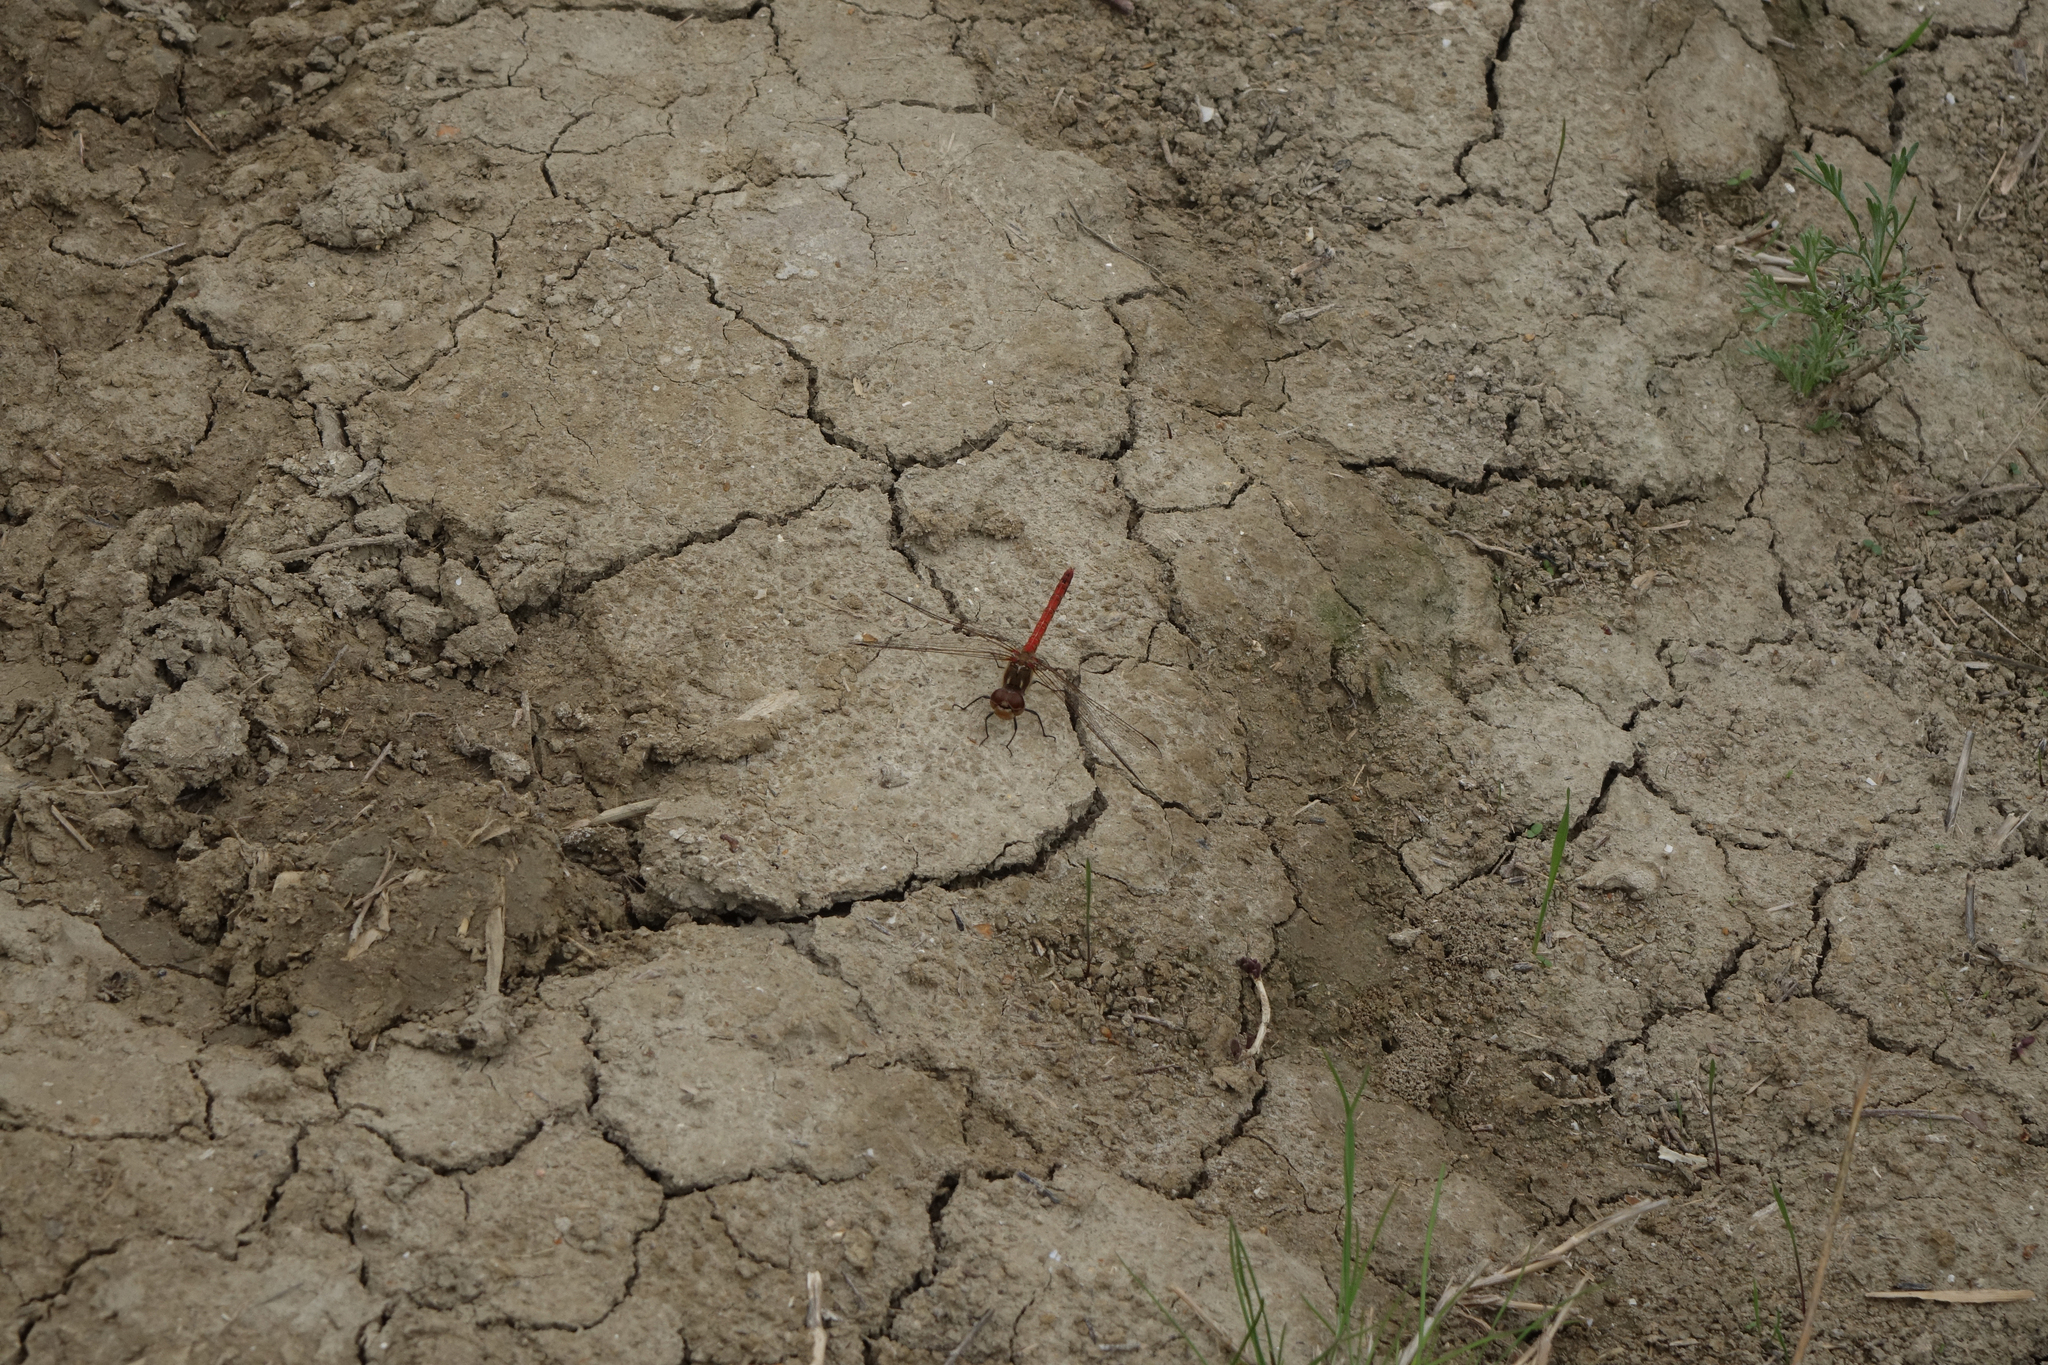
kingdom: Animalia
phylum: Arthropoda
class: Insecta
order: Odonata
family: Libellulidae
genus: Sympetrum
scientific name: Sympetrum striolatum
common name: Common darter
